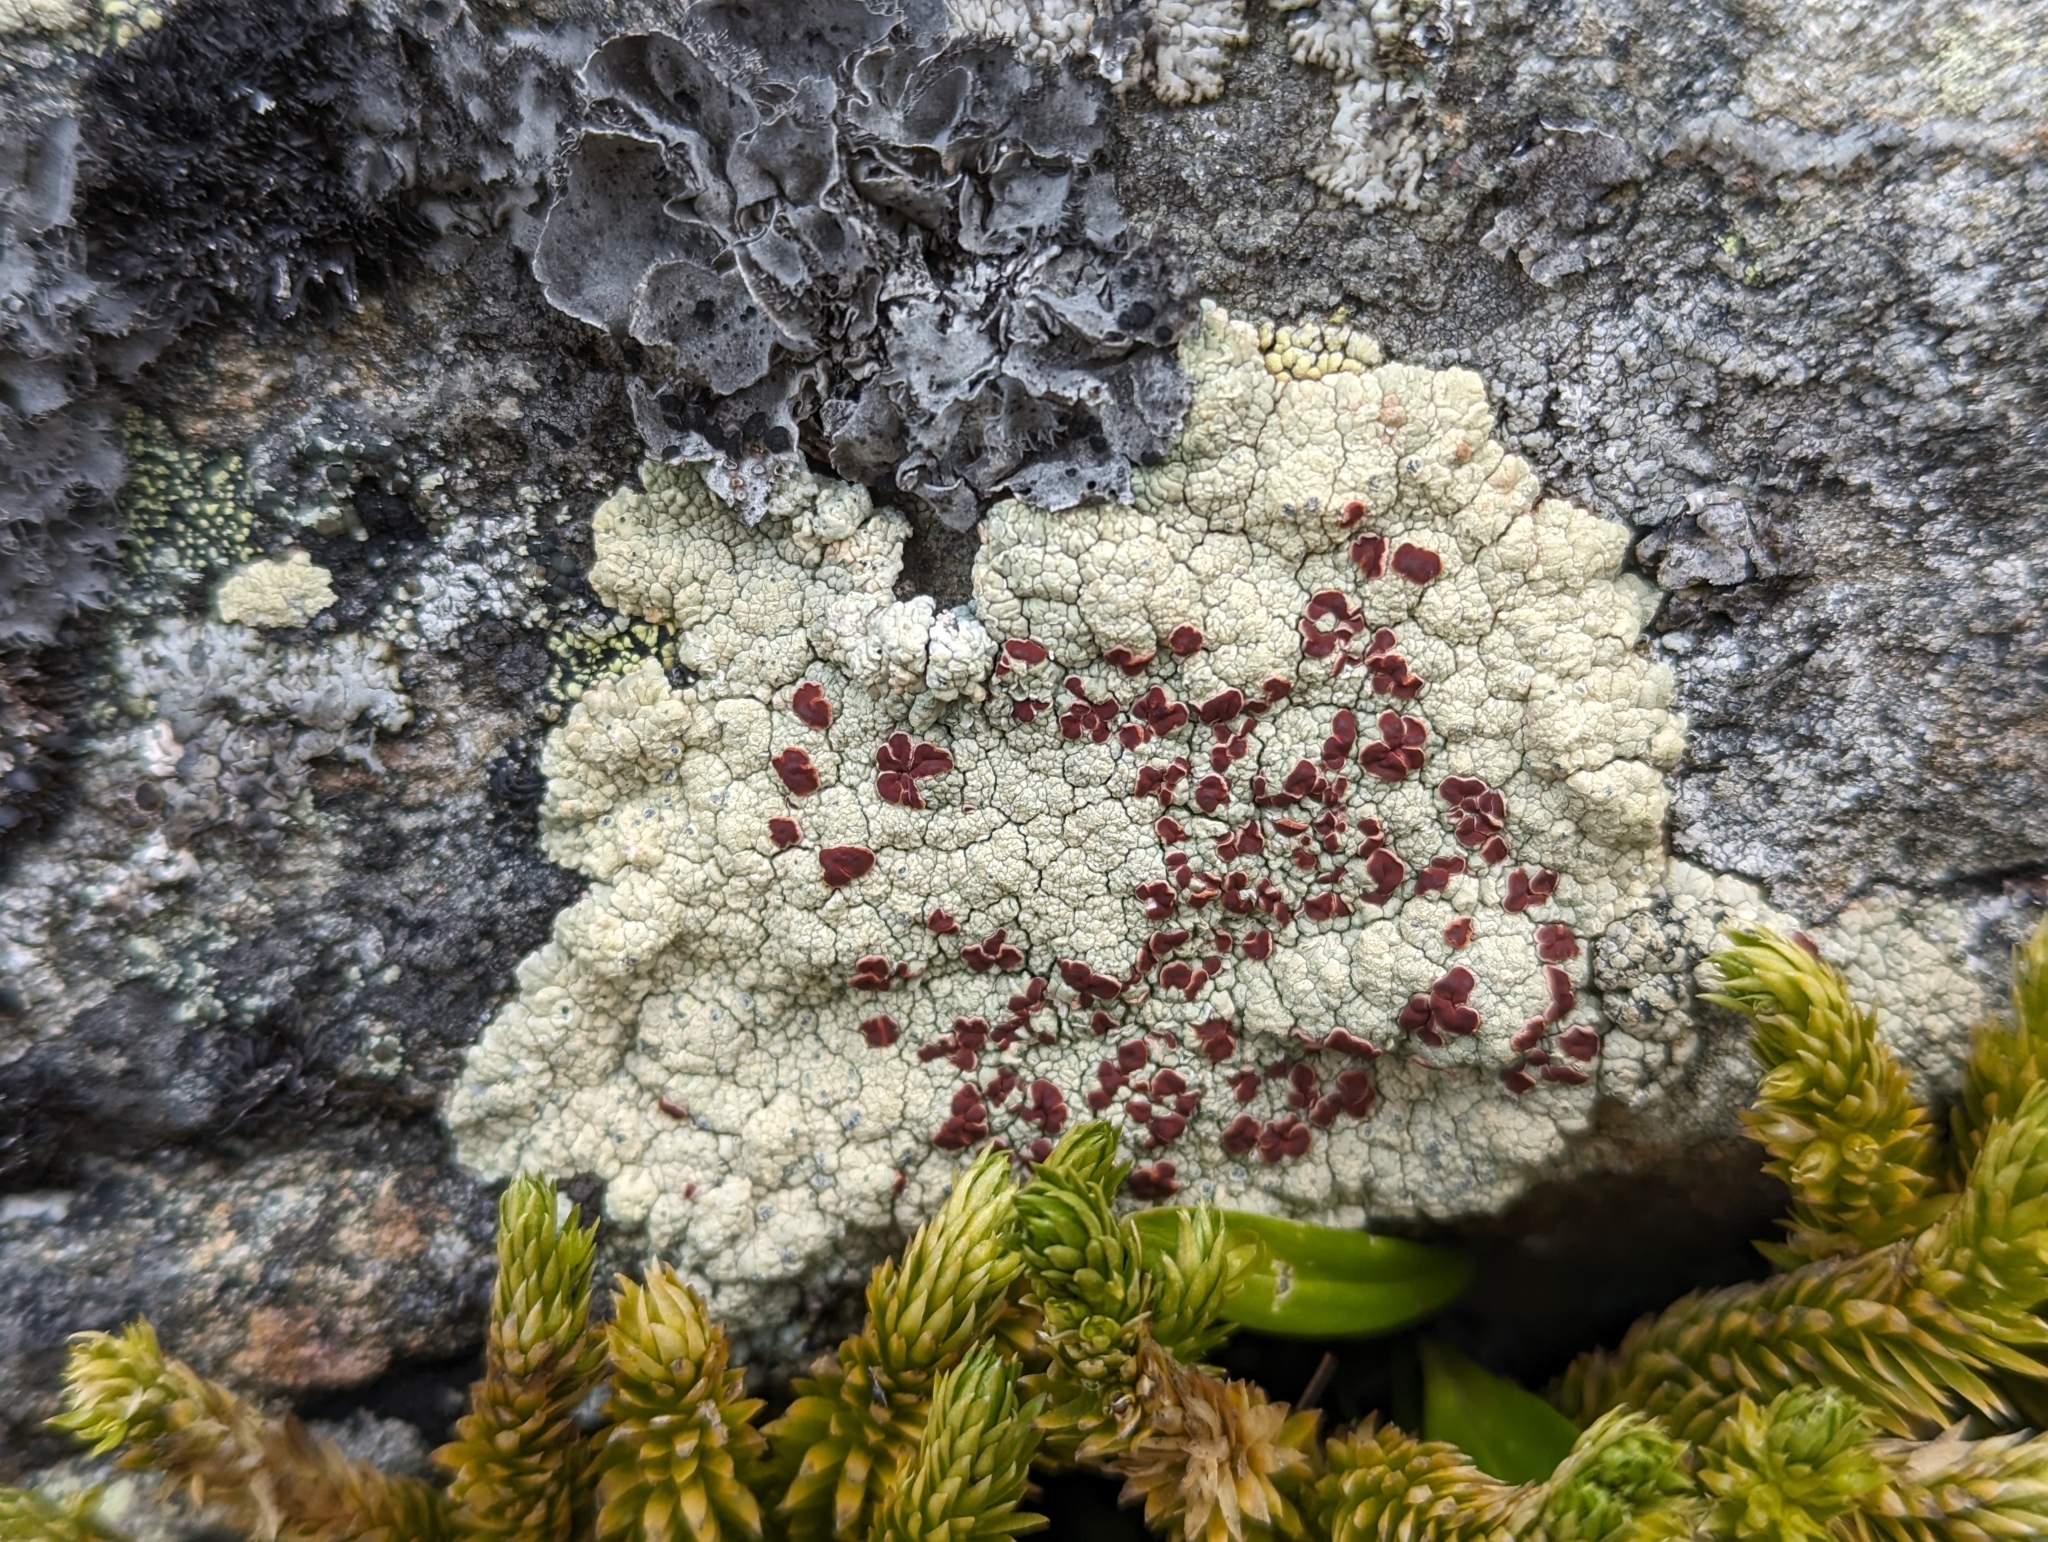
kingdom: Fungi
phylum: Ascomycota
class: Lecanoromycetes
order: Umbilicariales
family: Ophioparmaceae
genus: Ophioparma
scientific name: Ophioparma ventosa
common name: Blood-spot
